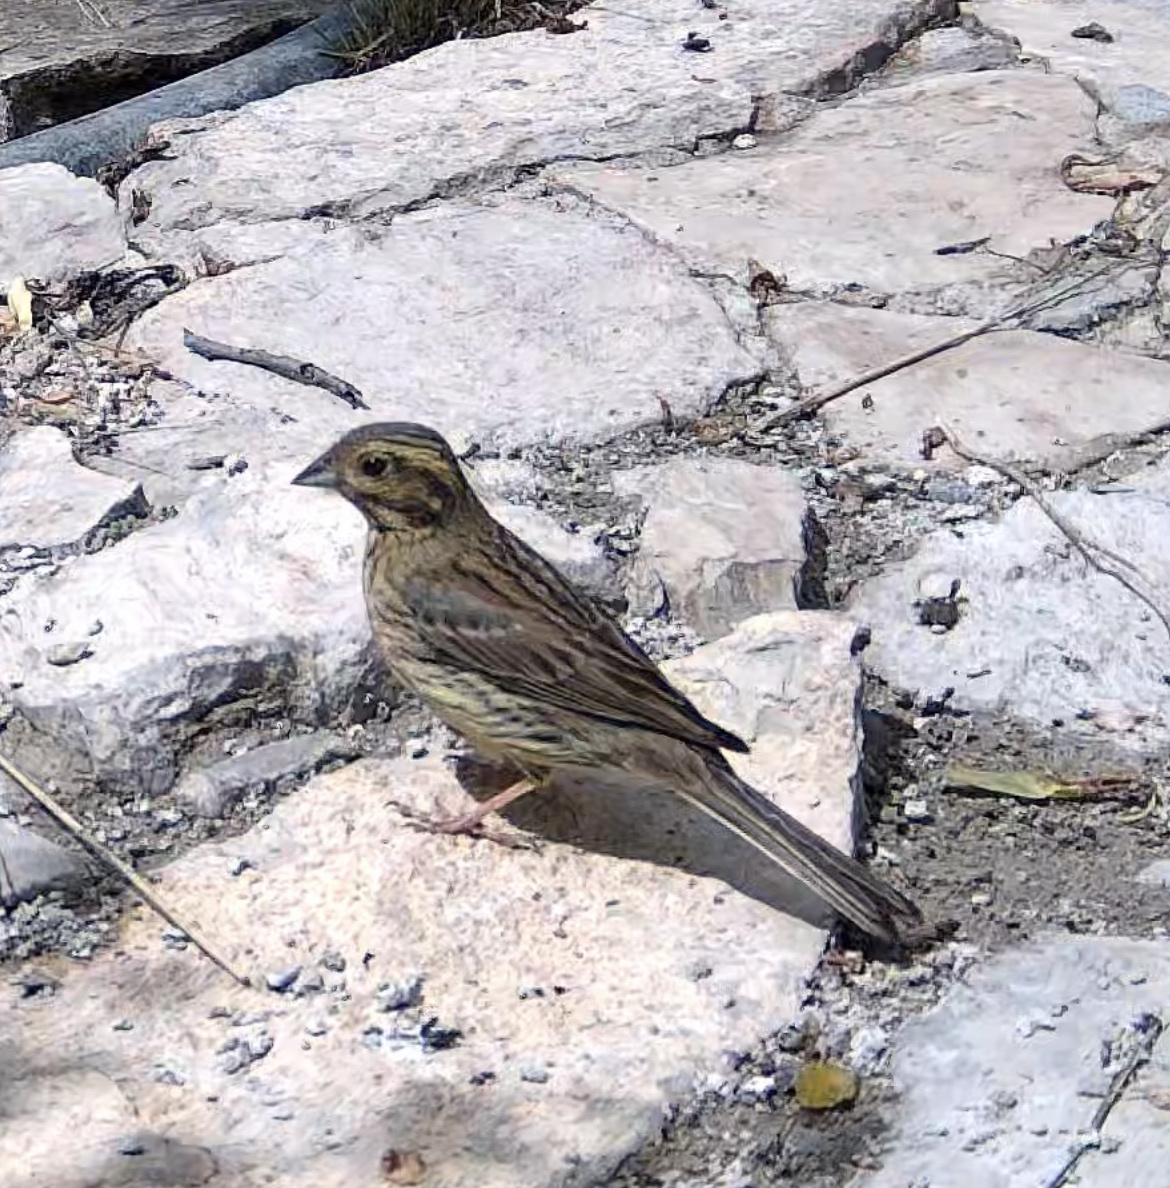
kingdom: Animalia
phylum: Chordata
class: Aves
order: Passeriformes
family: Emberizidae
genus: Emberiza
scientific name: Emberiza cirlus
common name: Cirl bunting
